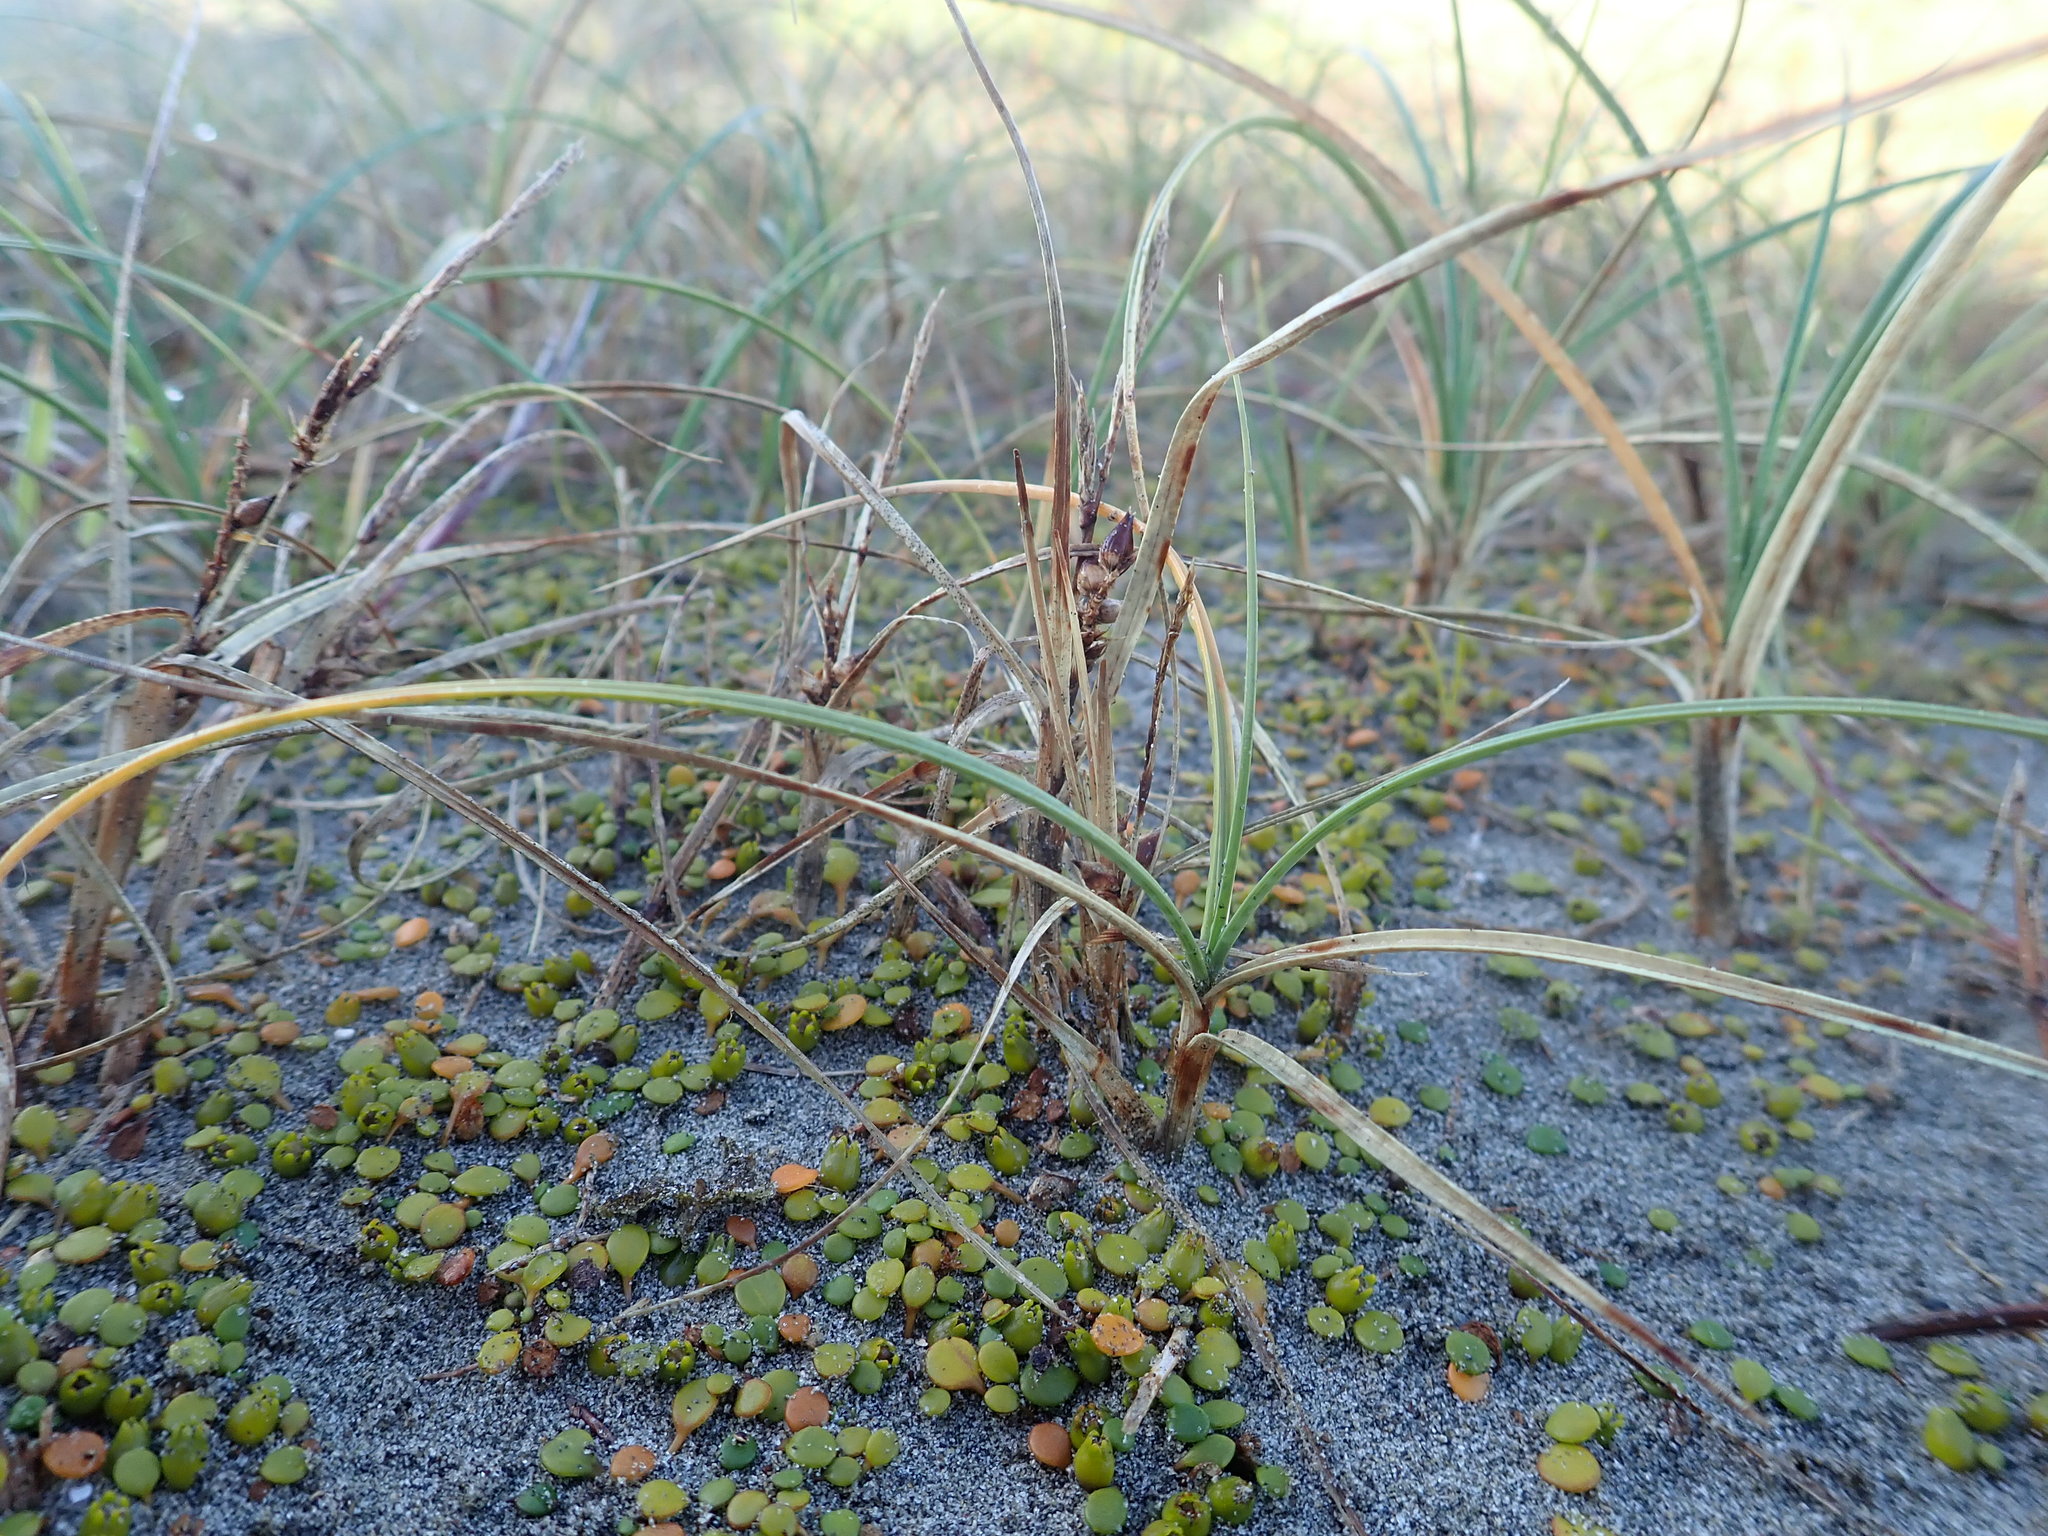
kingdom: Plantae
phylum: Tracheophyta
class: Liliopsida
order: Poales
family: Cyperaceae
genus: Carex
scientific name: Carex pumila
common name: Dwarf sedge
